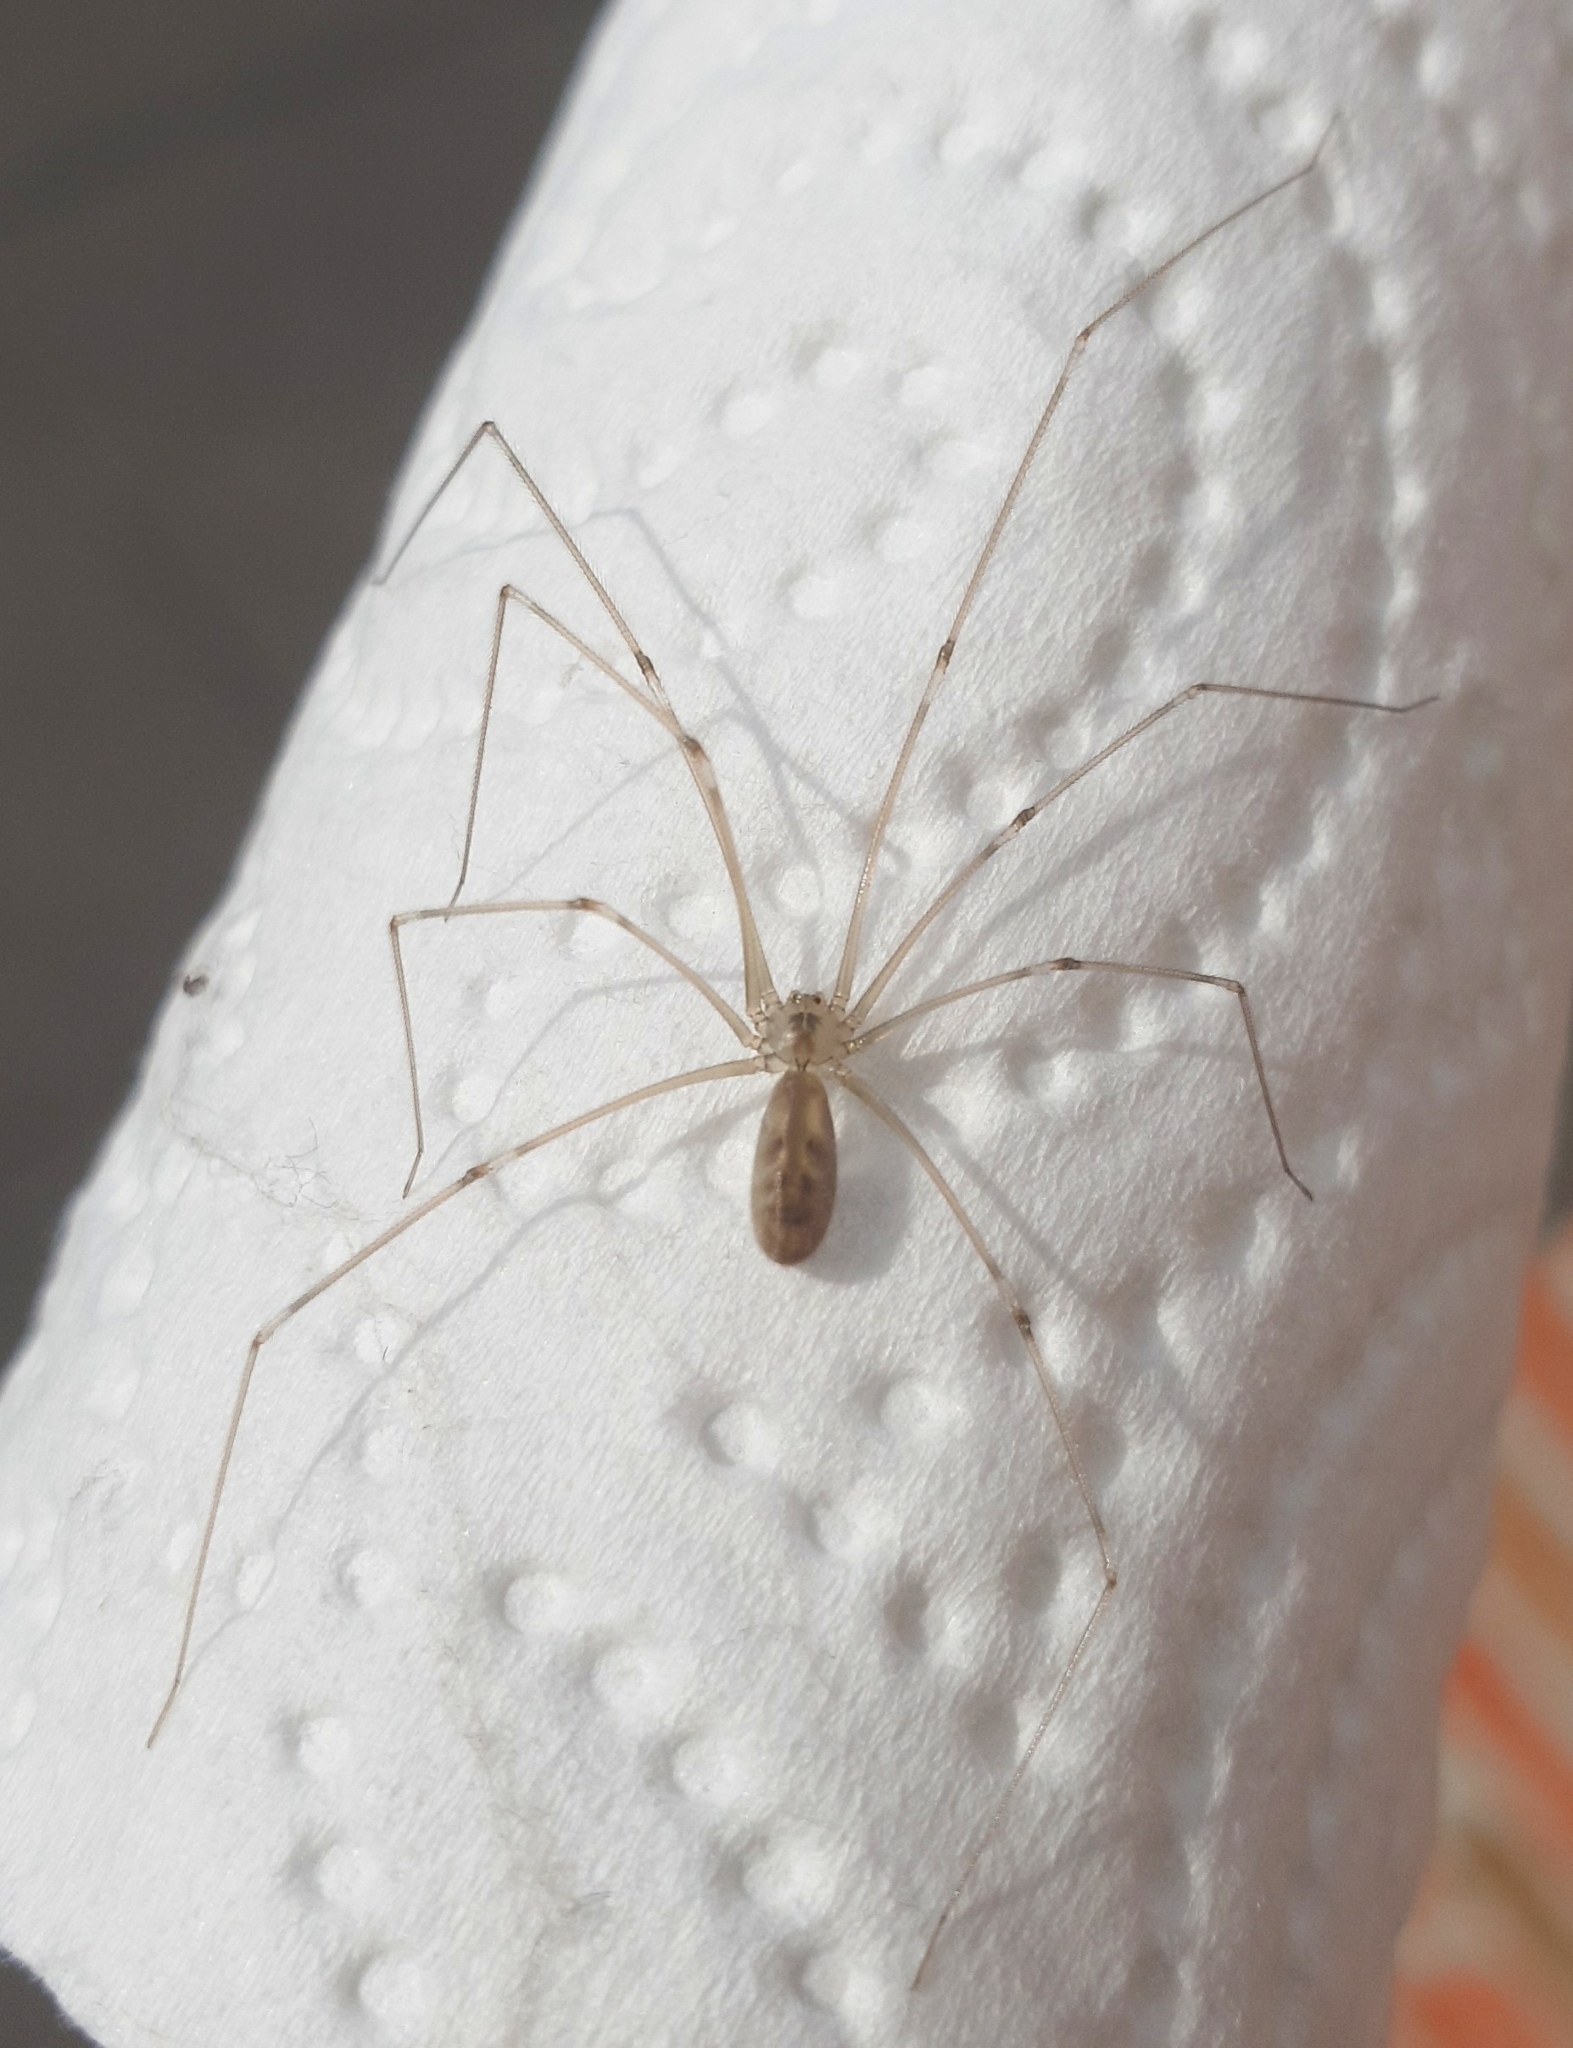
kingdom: Animalia
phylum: Arthropoda
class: Arachnida
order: Araneae
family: Pholcidae
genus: Pholcus
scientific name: Pholcus phalangioides
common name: Longbodied cellar spider
